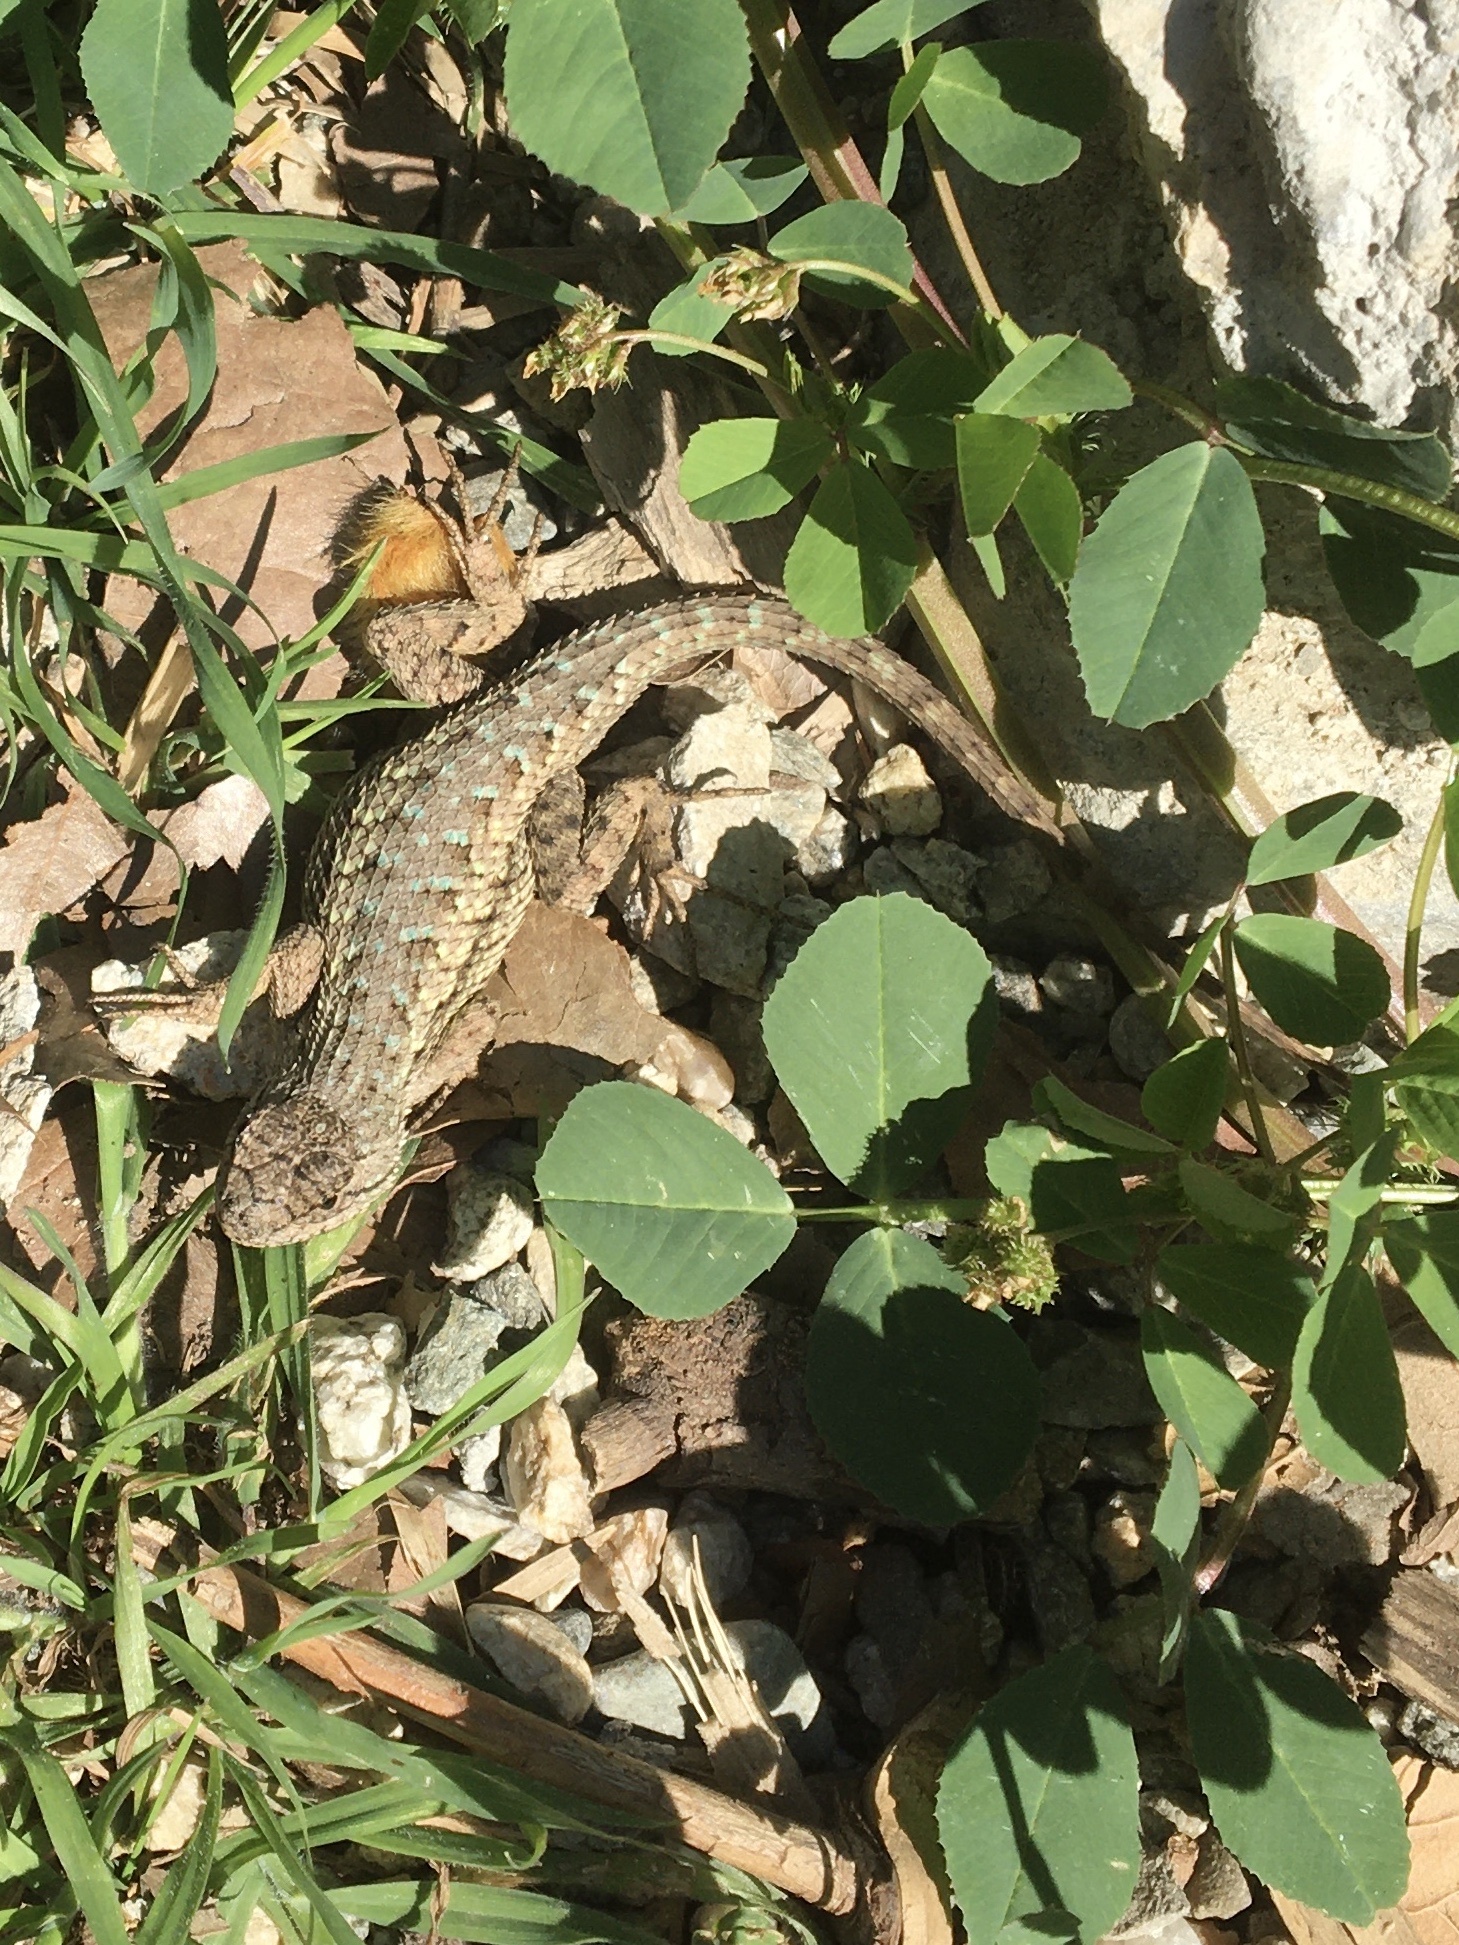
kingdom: Animalia
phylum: Chordata
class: Squamata
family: Phrynosomatidae
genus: Sceloporus
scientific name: Sceloporus occidentalis
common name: Western fence lizard
